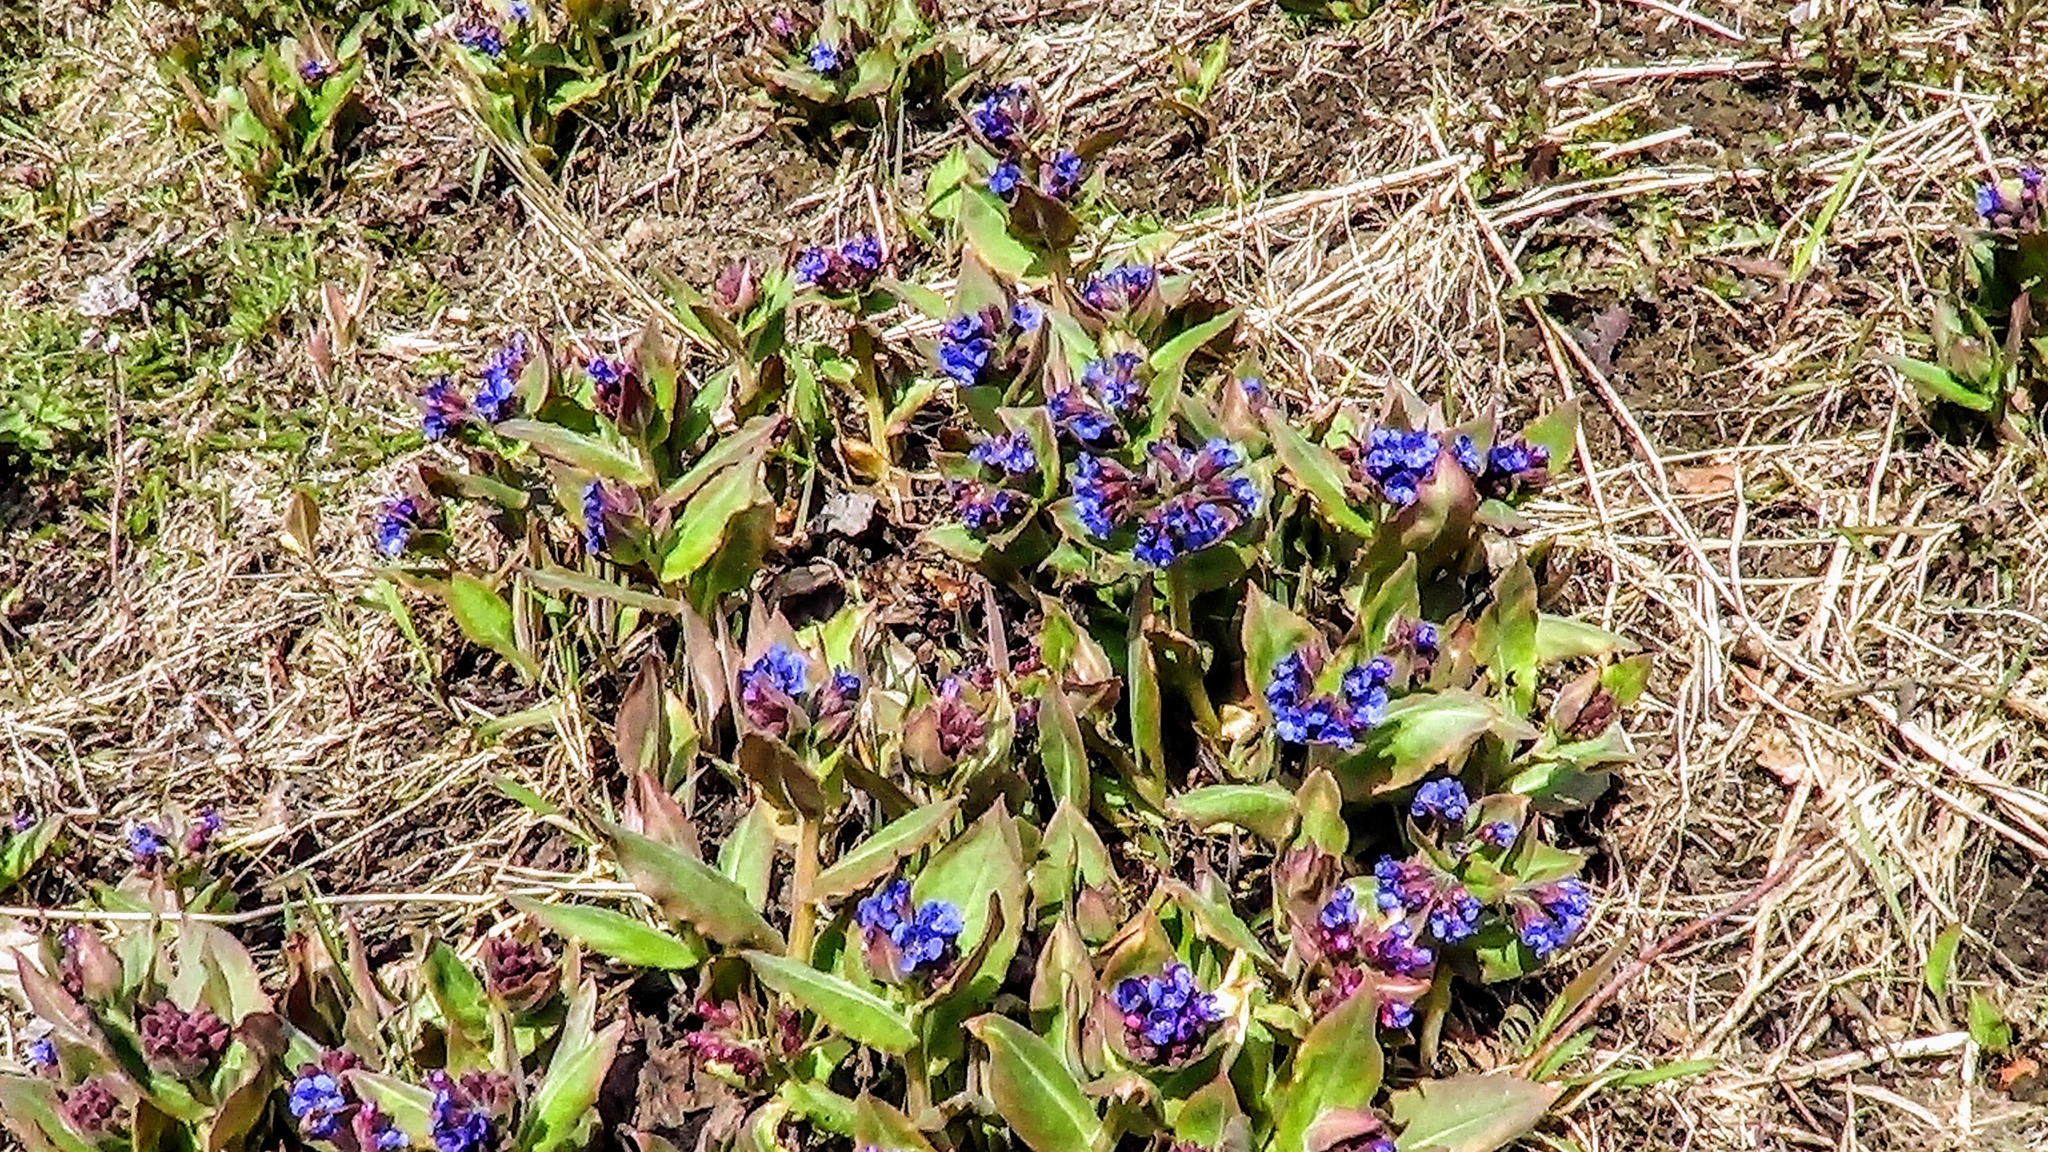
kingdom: Plantae
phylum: Tracheophyta
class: Magnoliopsida
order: Boraginales
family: Boraginaceae
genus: Pulmonaria
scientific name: Pulmonaria mollis
